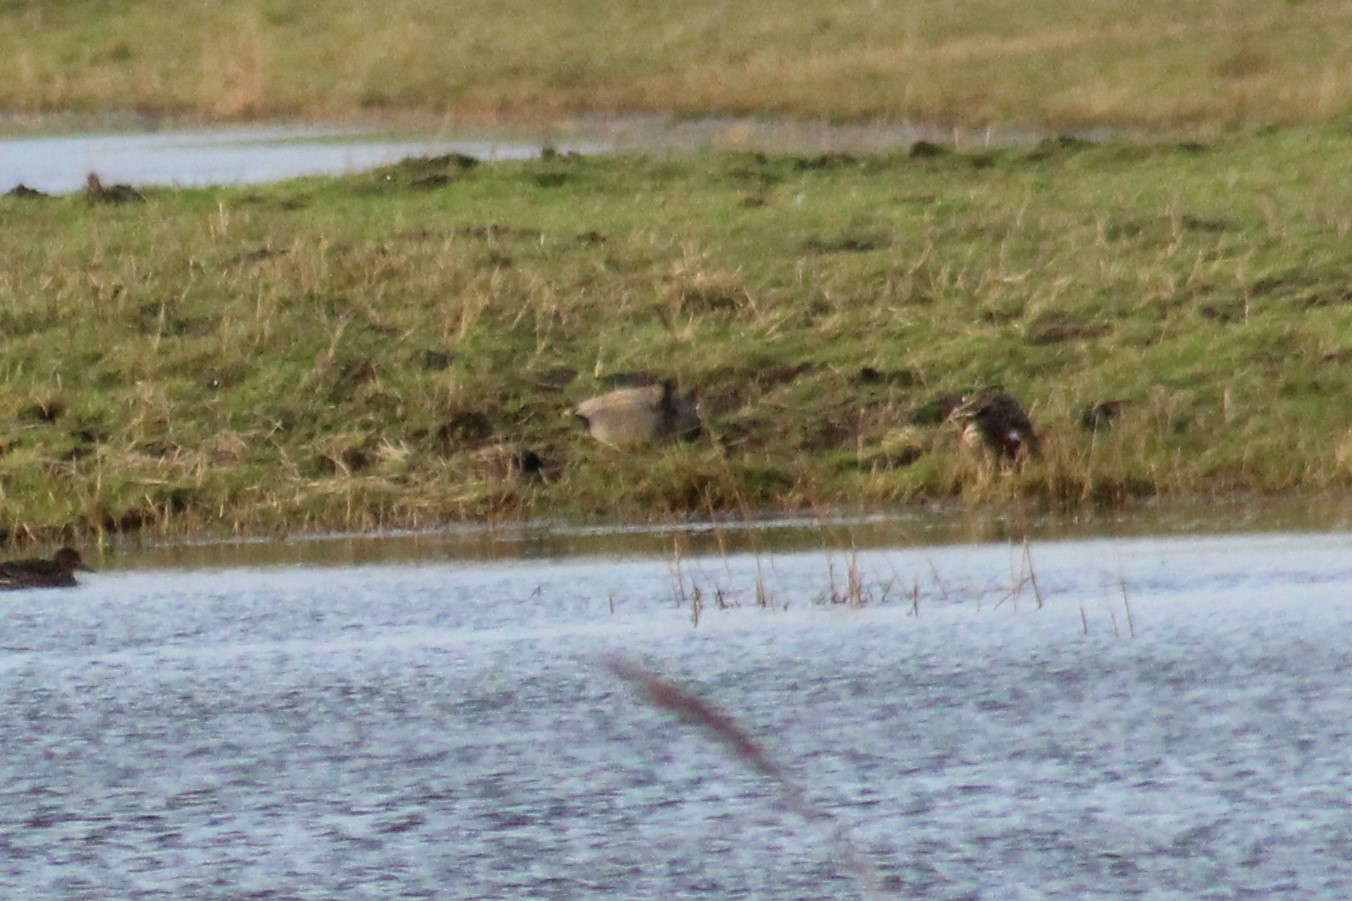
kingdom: Animalia
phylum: Chordata
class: Aves
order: Anseriformes
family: Anatidae
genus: Mareca
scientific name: Mareca strepera
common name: Gadwall
